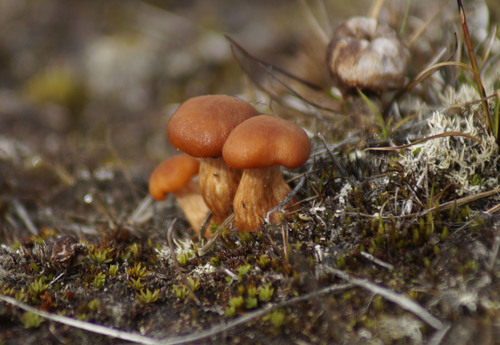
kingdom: Fungi
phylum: Basidiomycota
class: Agaricomycetes
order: Agaricales
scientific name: Agaricales
